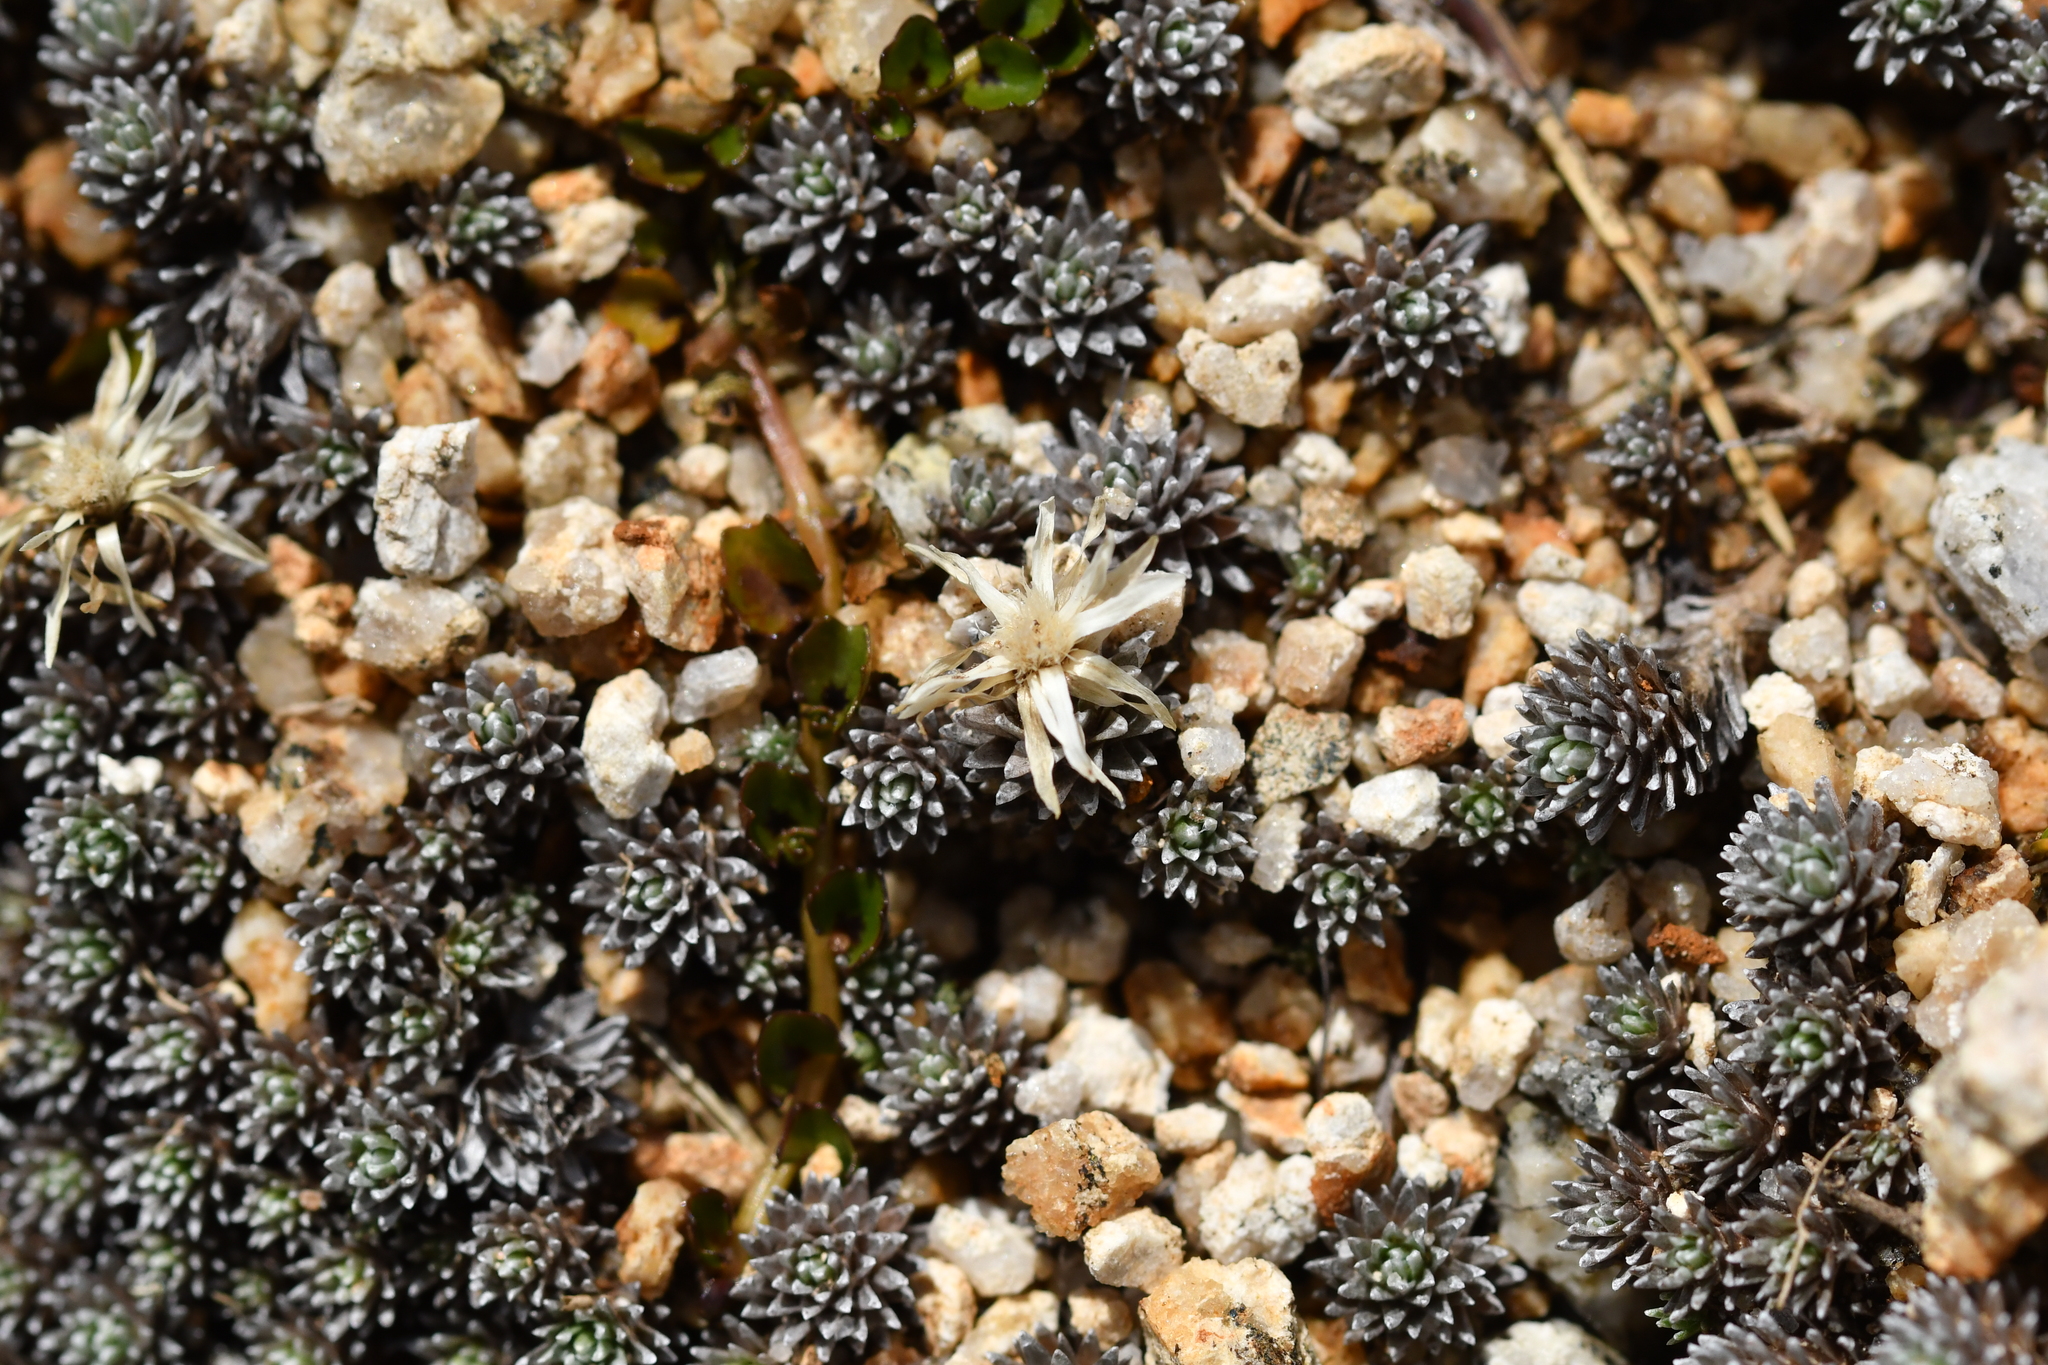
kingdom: Plantae
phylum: Tracheophyta
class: Magnoliopsida
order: Asterales
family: Asteraceae
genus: Raoulia
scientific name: Raoulia grandiflora
